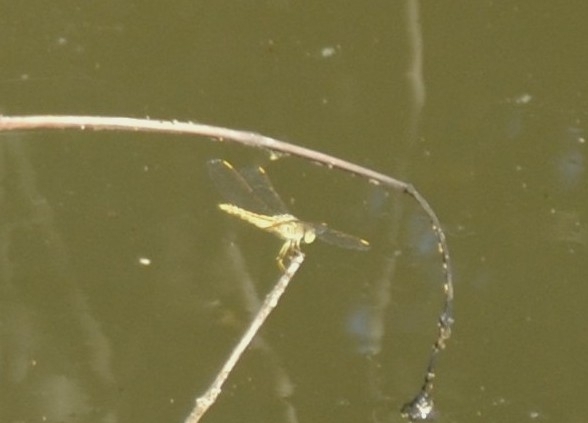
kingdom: Animalia
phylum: Arthropoda
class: Insecta
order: Odonata
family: Libellulidae
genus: Brachythemis
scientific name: Brachythemis contaminata
